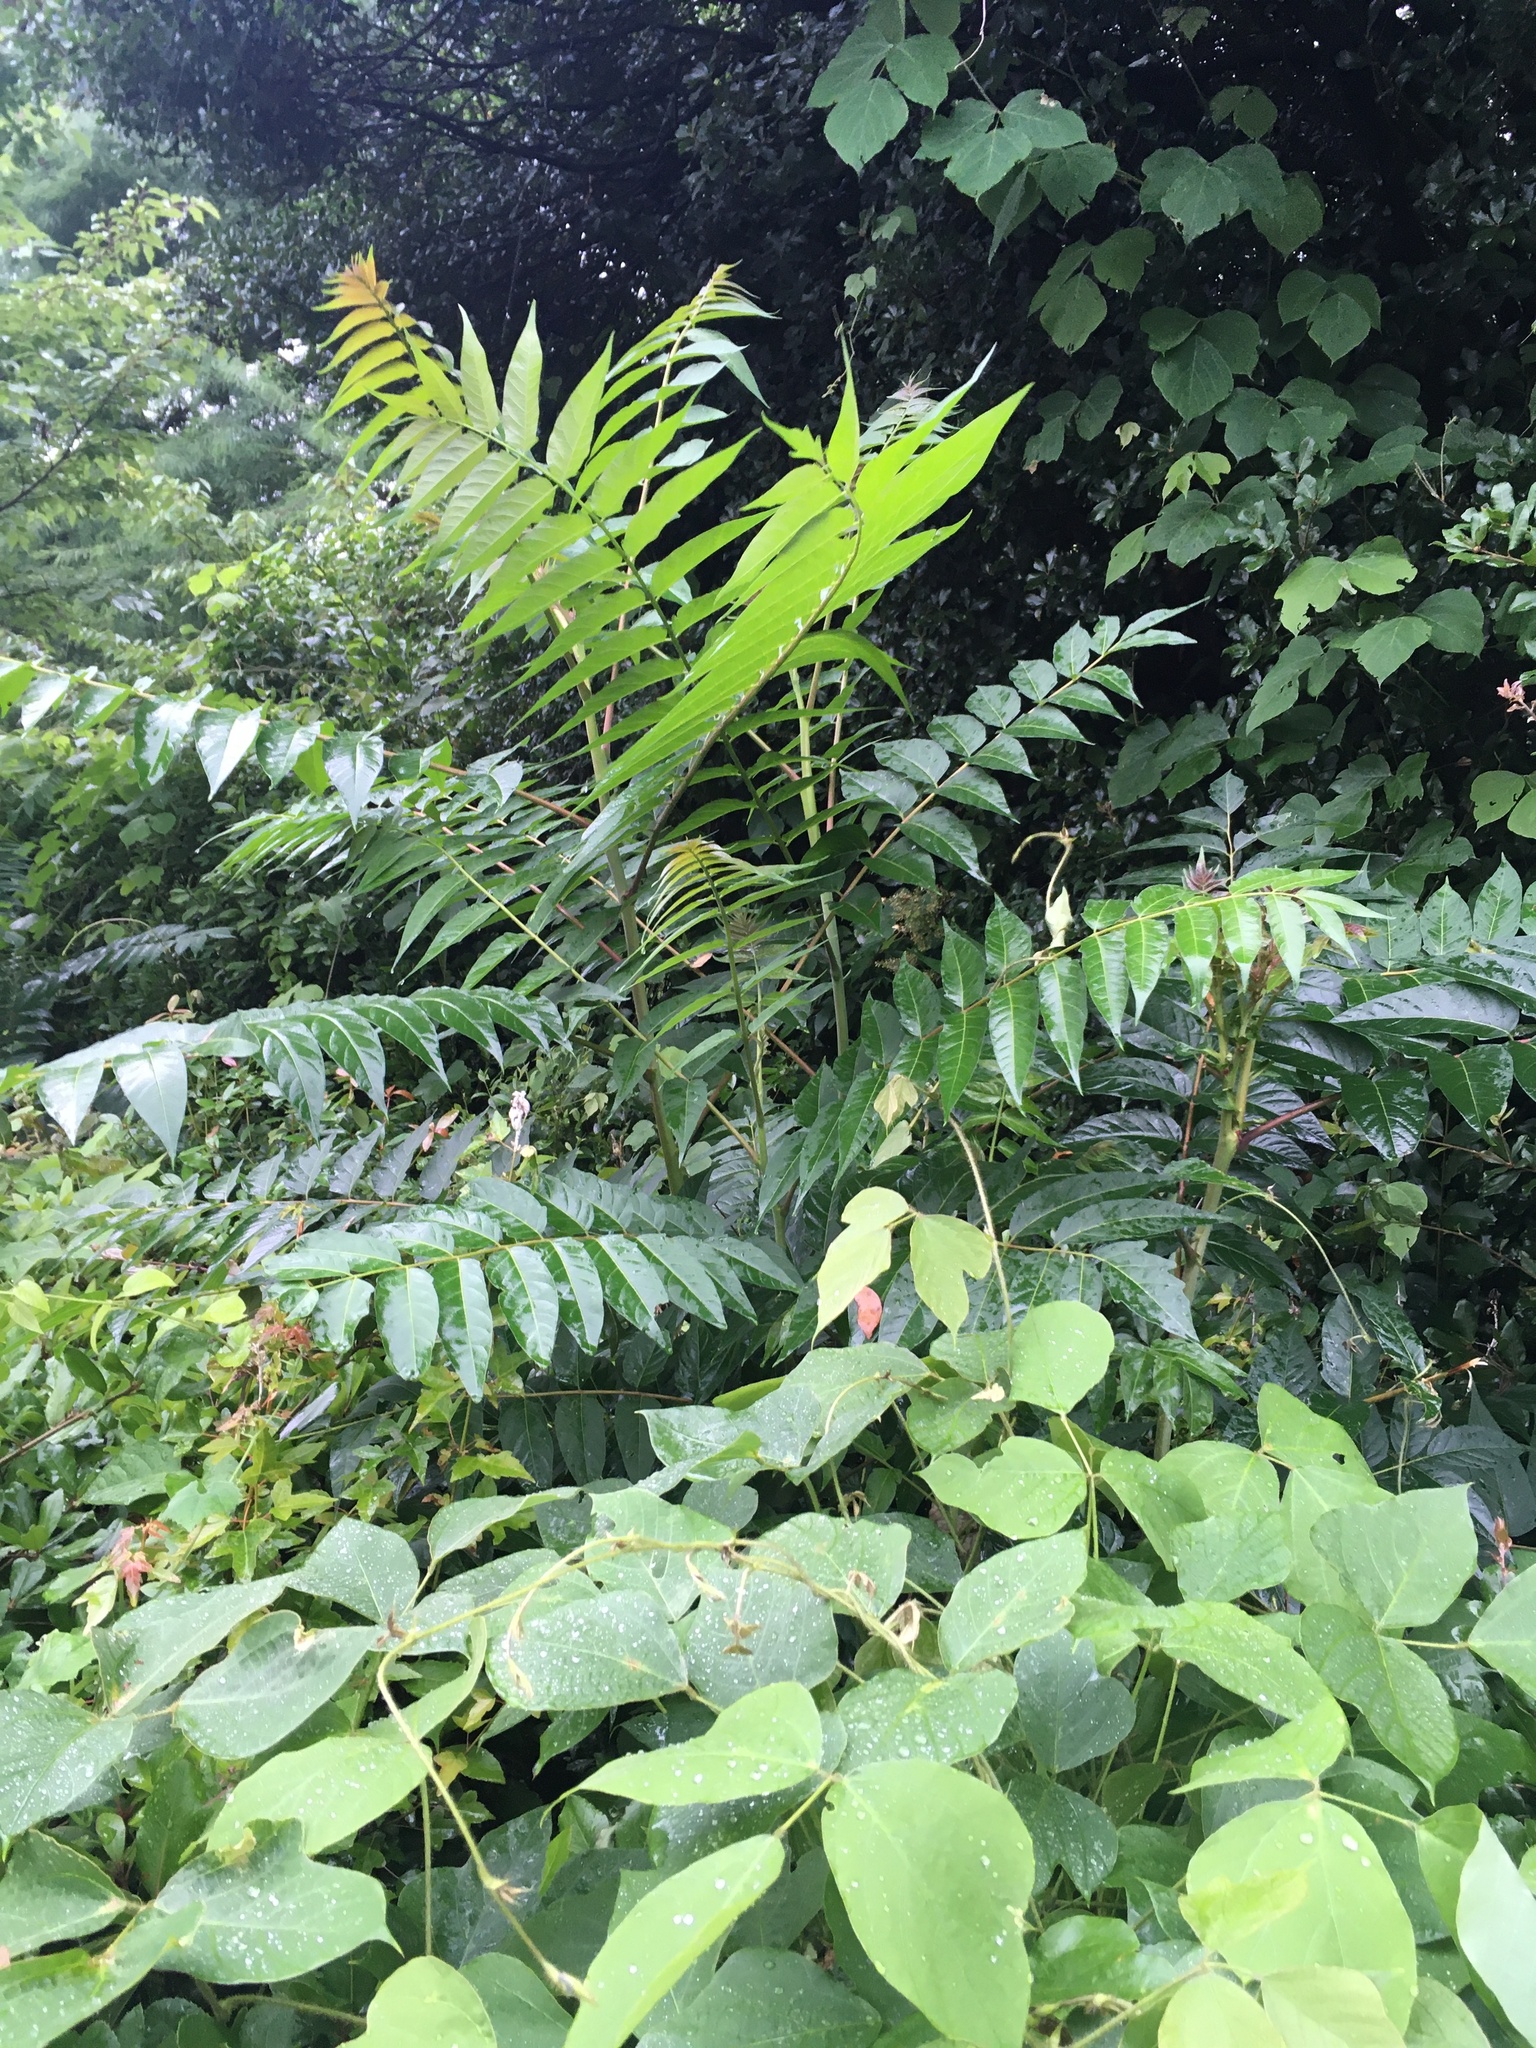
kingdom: Plantae
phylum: Tracheophyta
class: Magnoliopsida
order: Sapindales
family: Simaroubaceae
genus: Ailanthus
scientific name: Ailanthus altissima
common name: Tree-of-heaven
